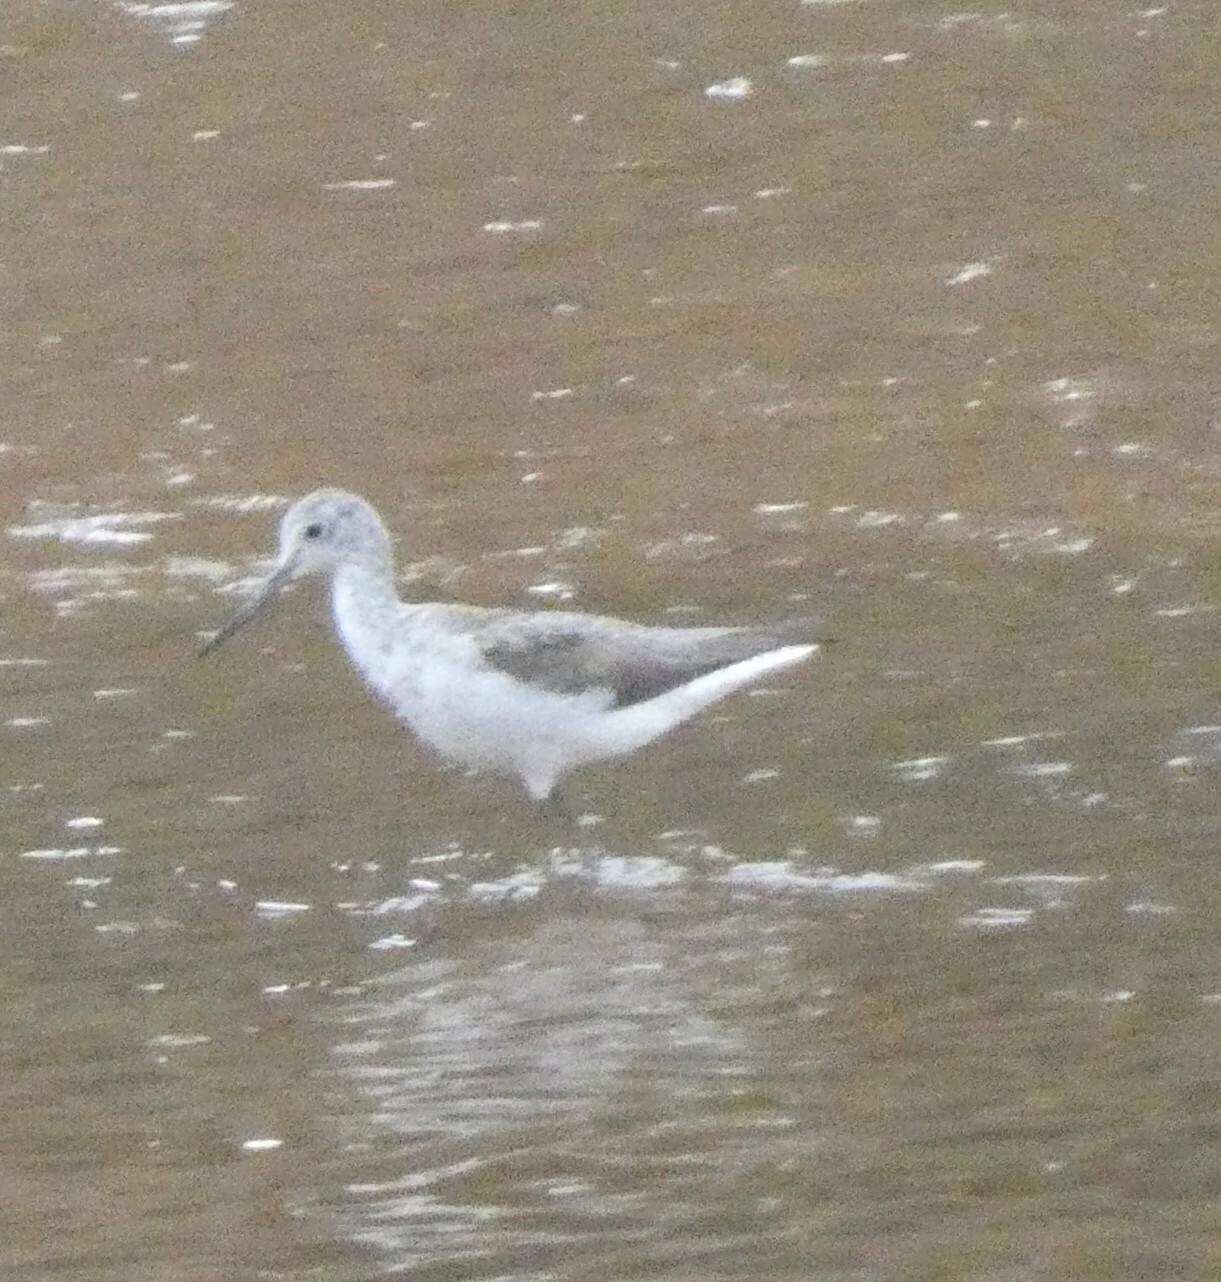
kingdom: Animalia
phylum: Chordata
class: Aves
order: Charadriiformes
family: Scolopacidae
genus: Tringa
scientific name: Tringa nebularia
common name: Common greenshank
